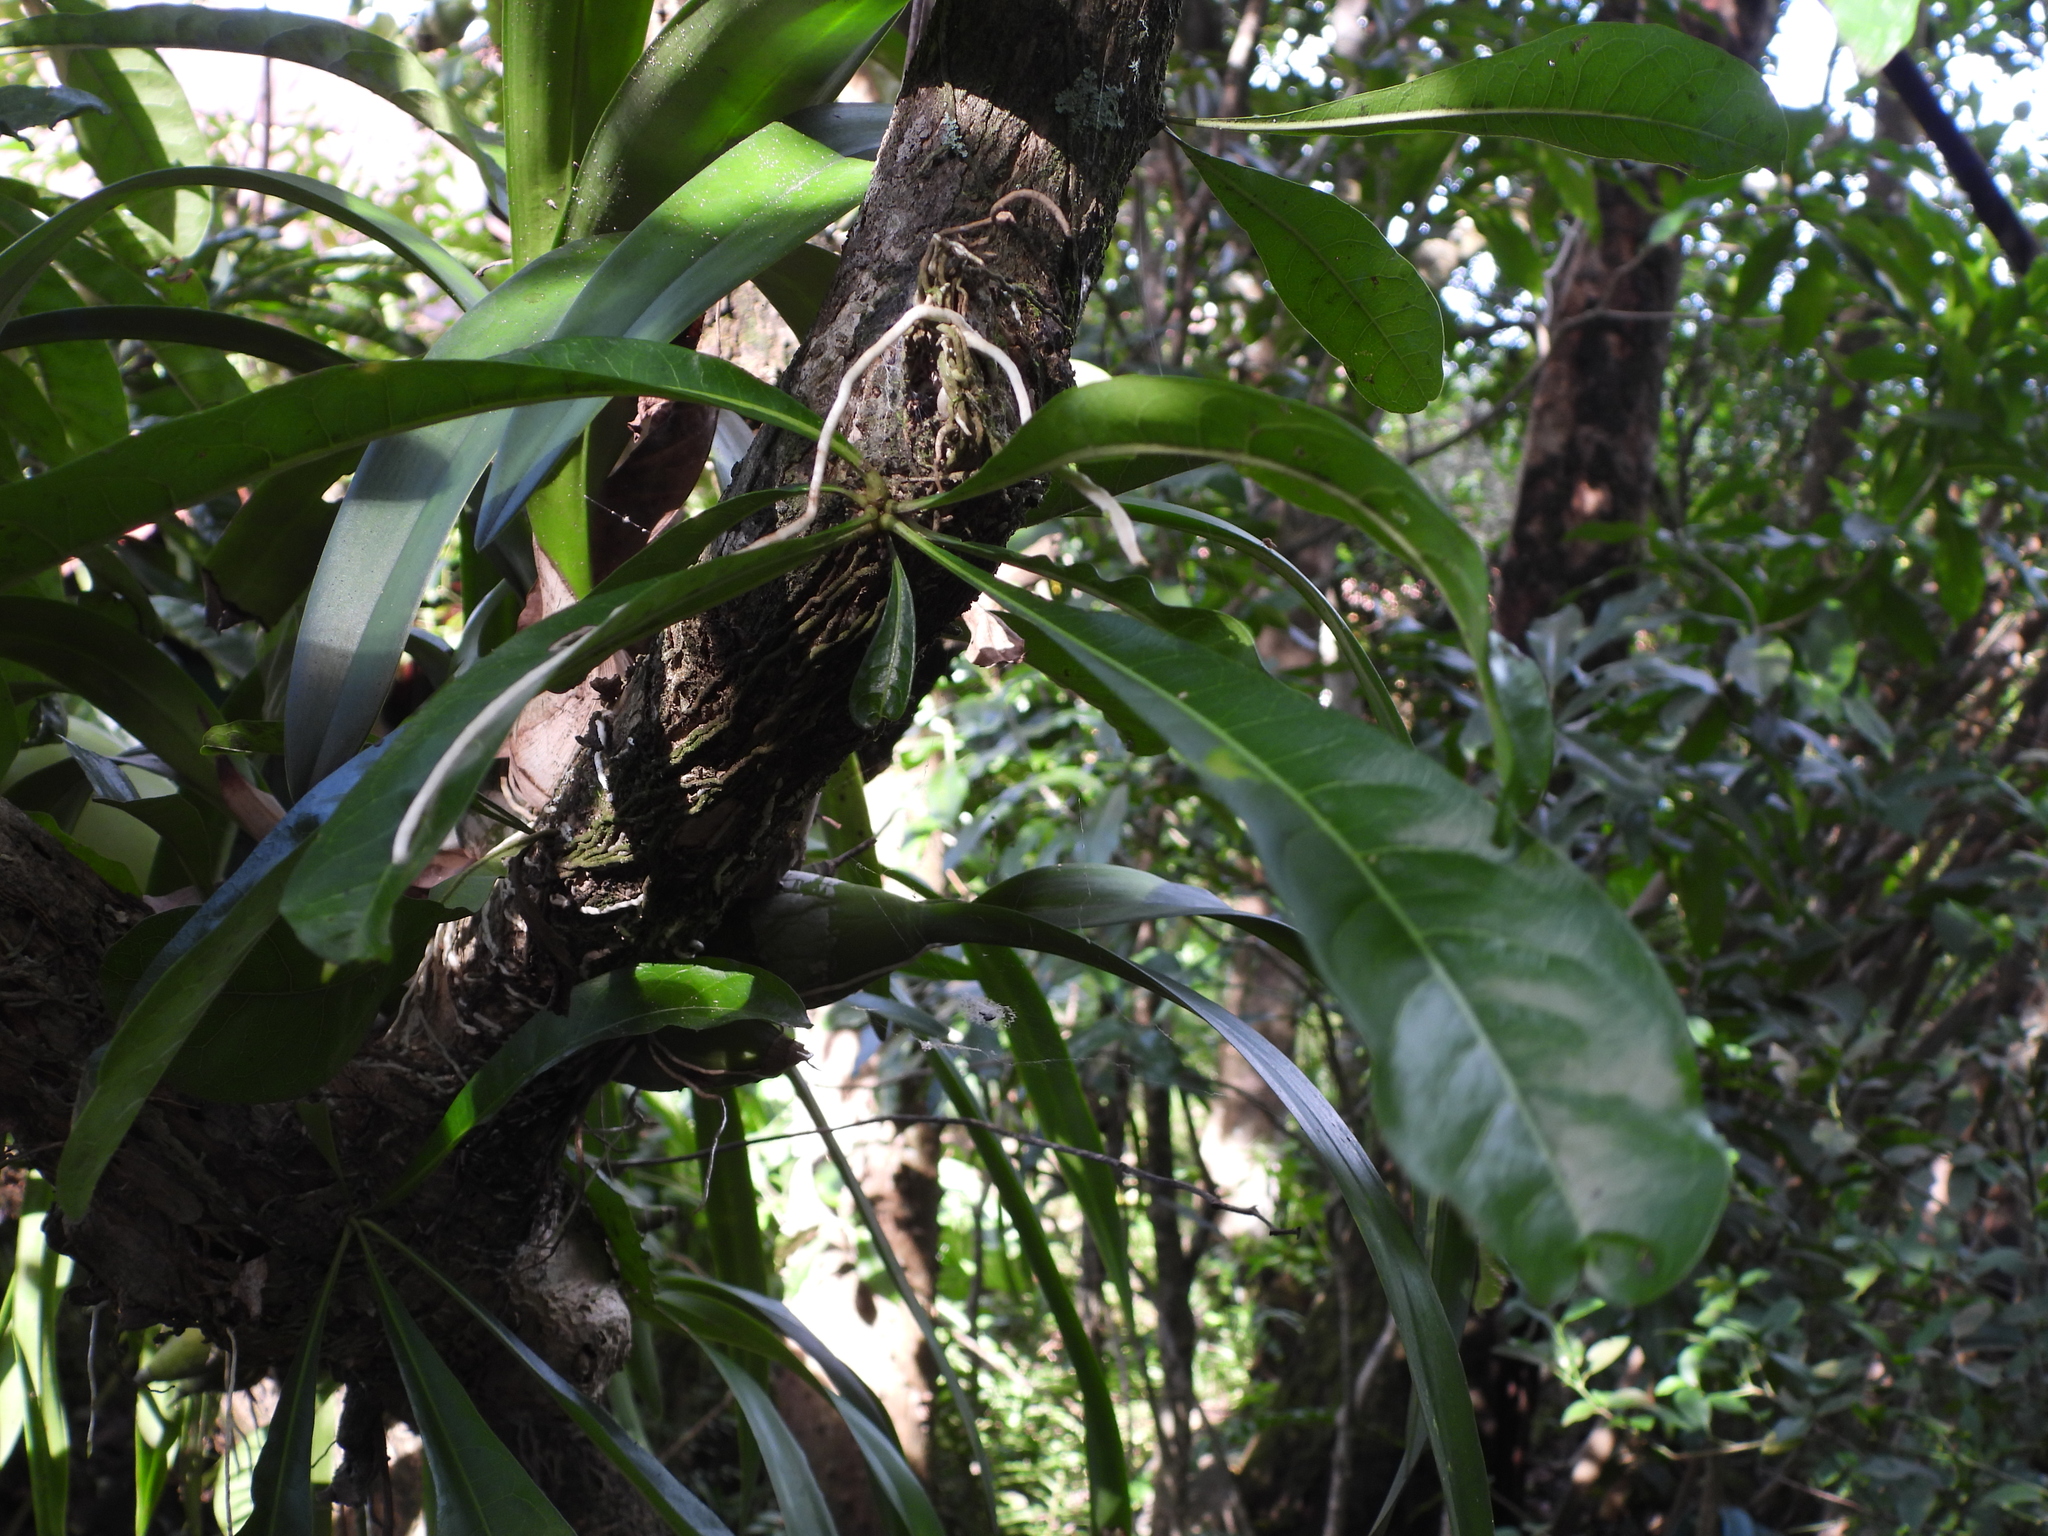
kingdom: Plantae
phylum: Tracheophyta
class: Magnoliopsida
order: Lamiales
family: Bignoniaceae
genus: Crescentia
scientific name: Crescentia cujete
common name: Calabash
